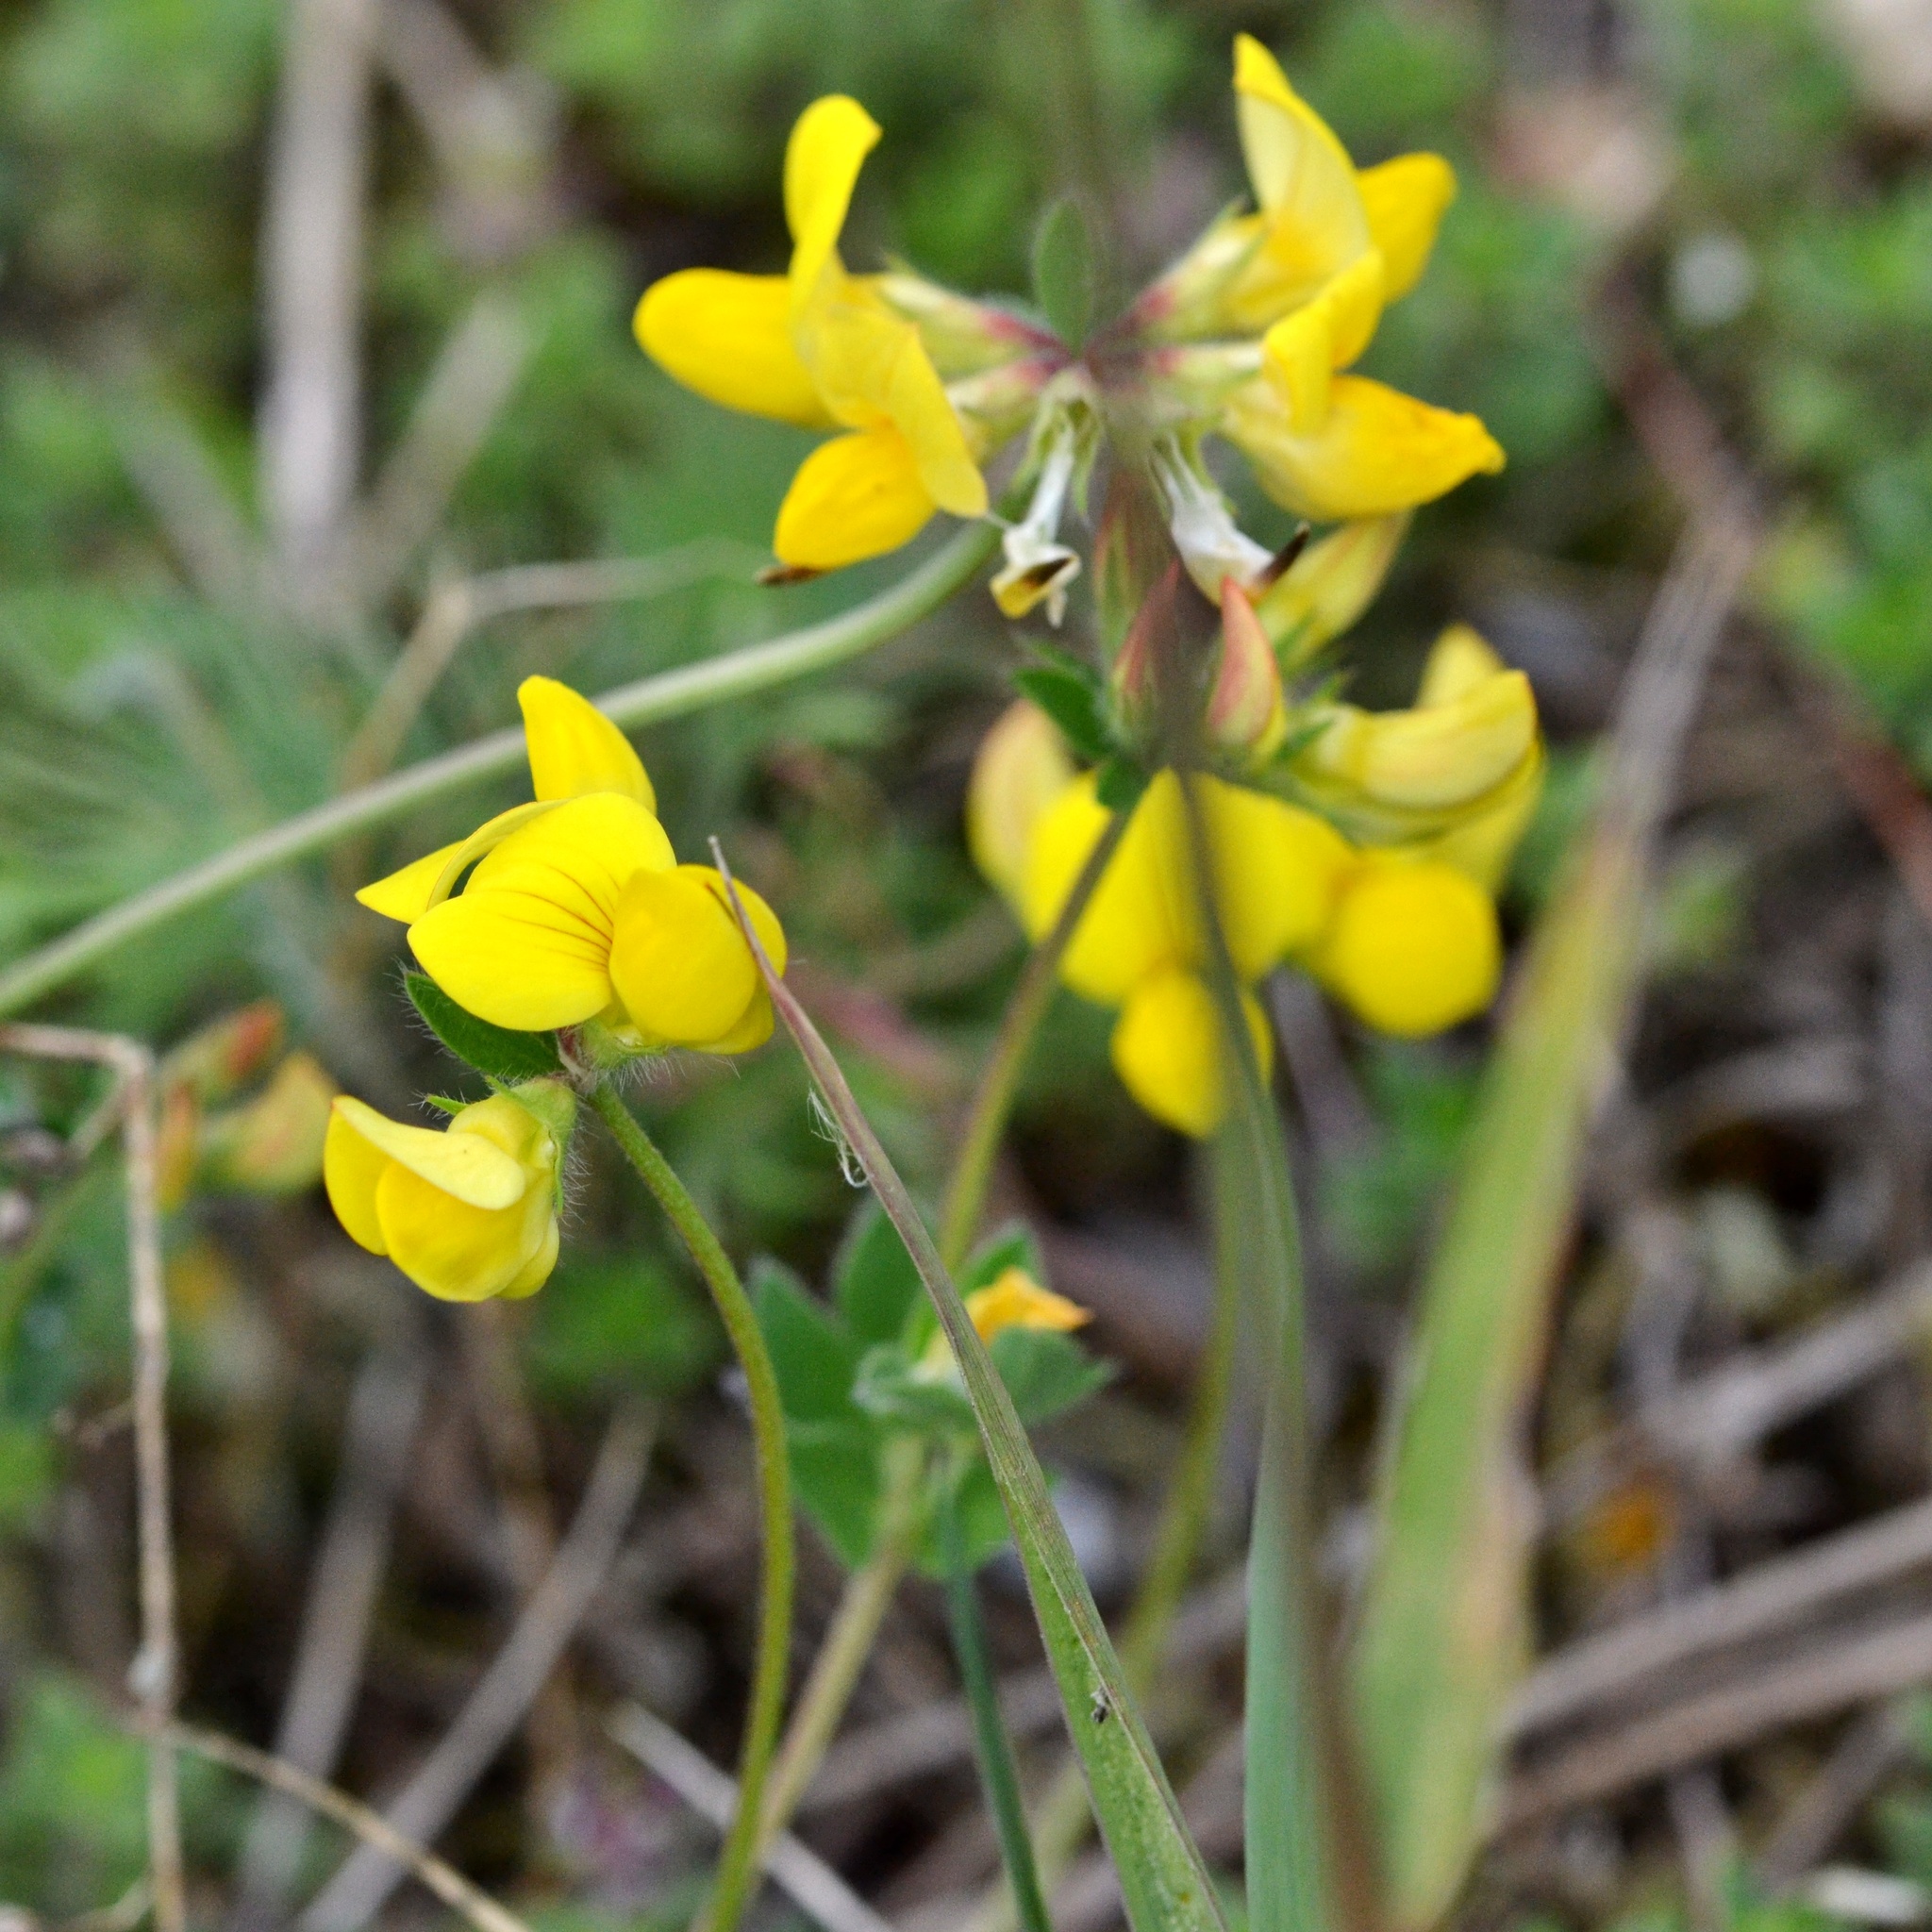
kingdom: Plantae
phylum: Tracheophyta
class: Magnoliopsida
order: Fabales
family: Fabaceae
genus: Lotus
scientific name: Lotus corniculatus
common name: Common bird's-foot-trefoil
